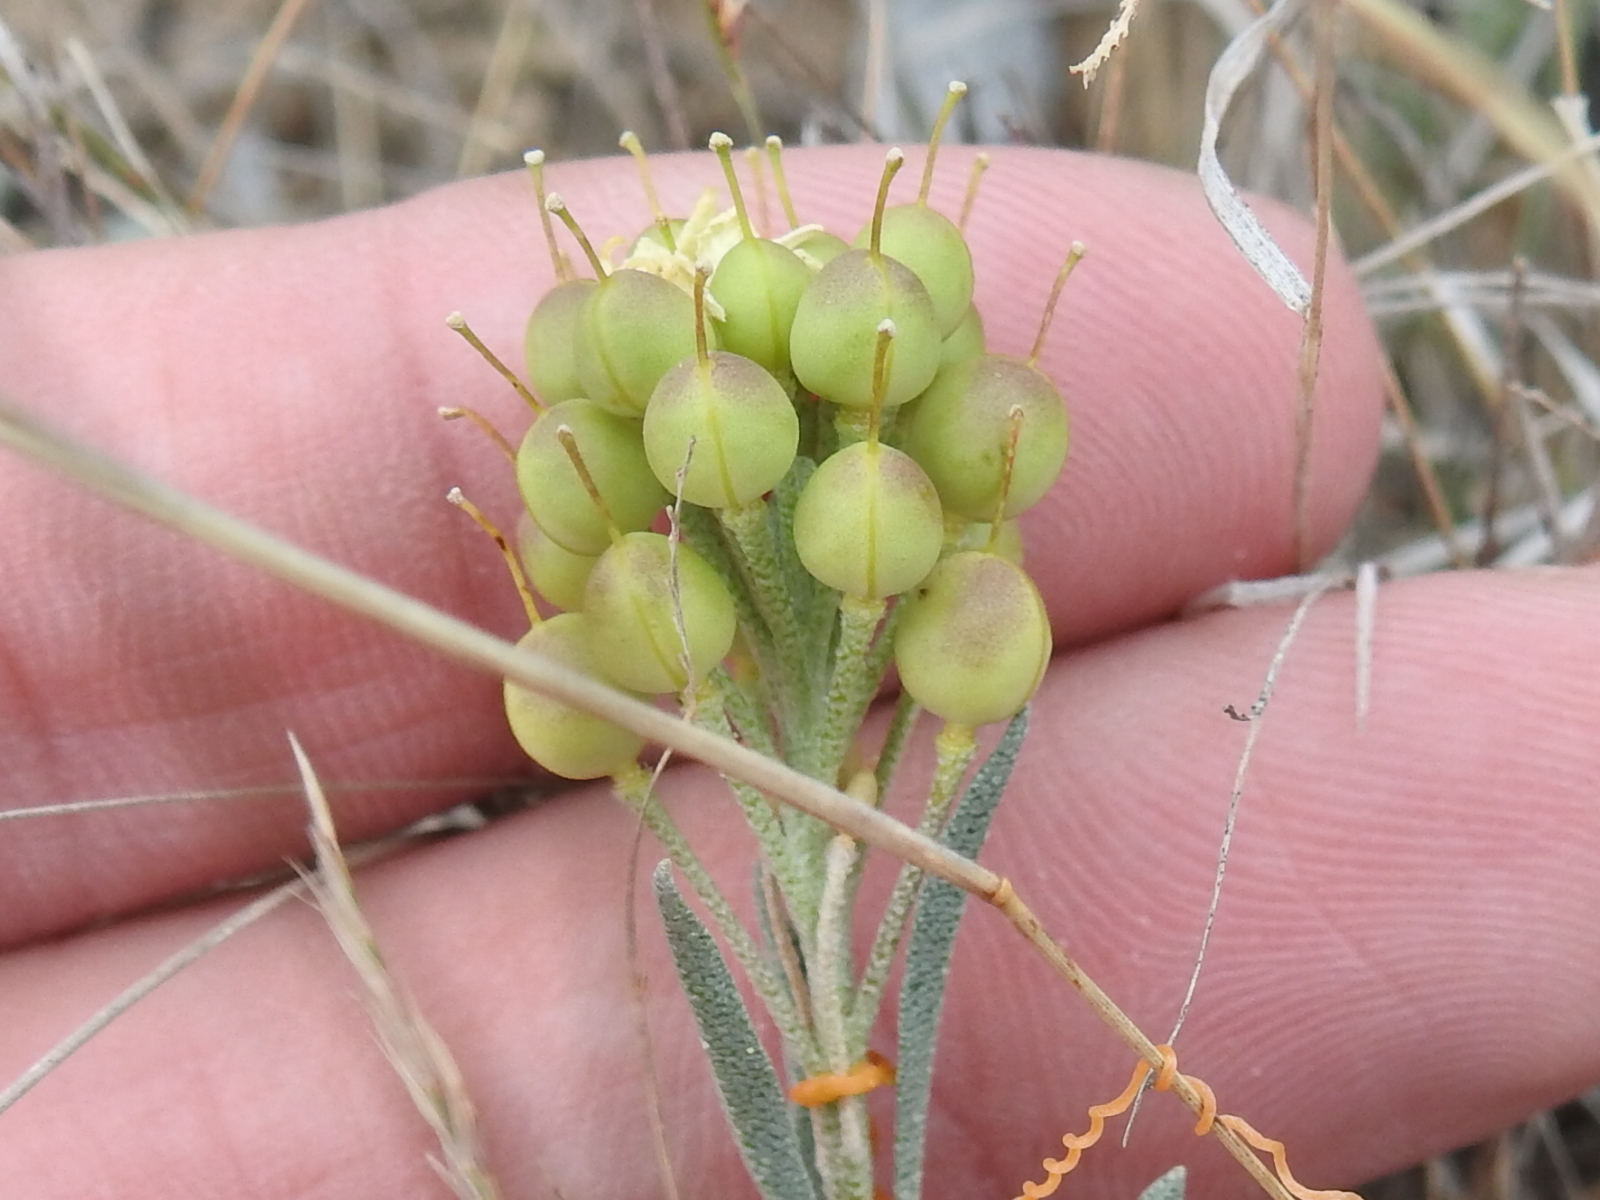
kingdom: Plantae
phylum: Tracheophyta
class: Magnoliopsida
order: Brassicales
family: Brassicaceae
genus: Physaria
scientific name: Physaria fendleri
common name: Fendler's bladderpod
